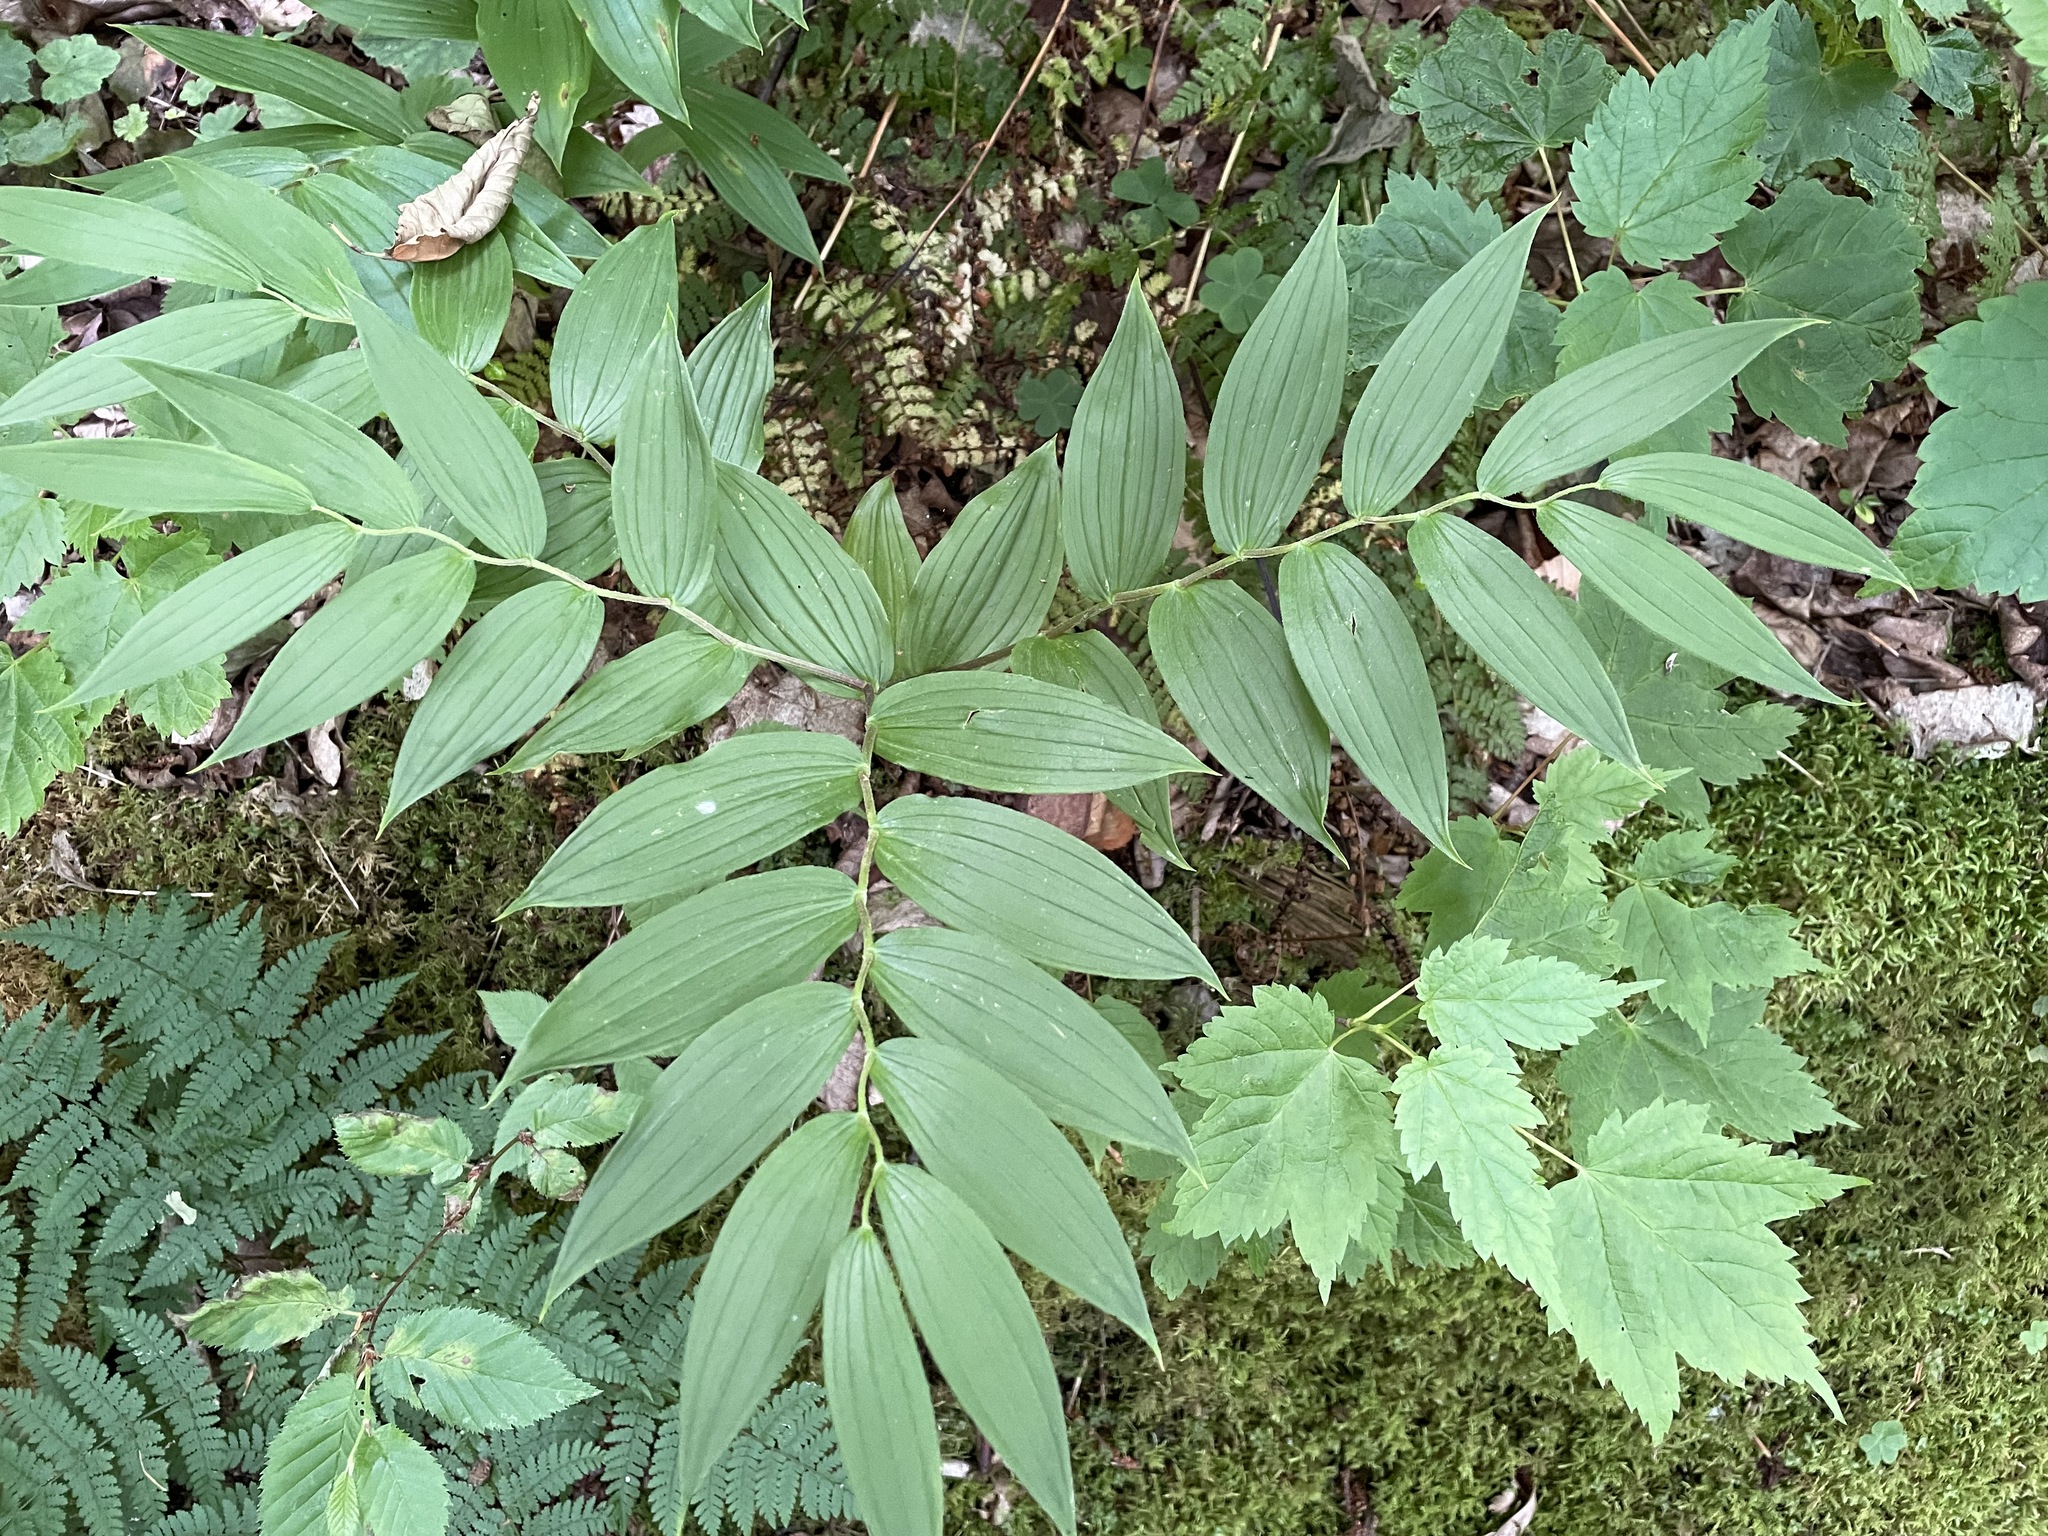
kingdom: Plantae
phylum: Tracheophyta
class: Liliopsida
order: Liliales
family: Liliaceae
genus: Streptopus
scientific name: Streptopus lanceolatus
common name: Rose mandarin
